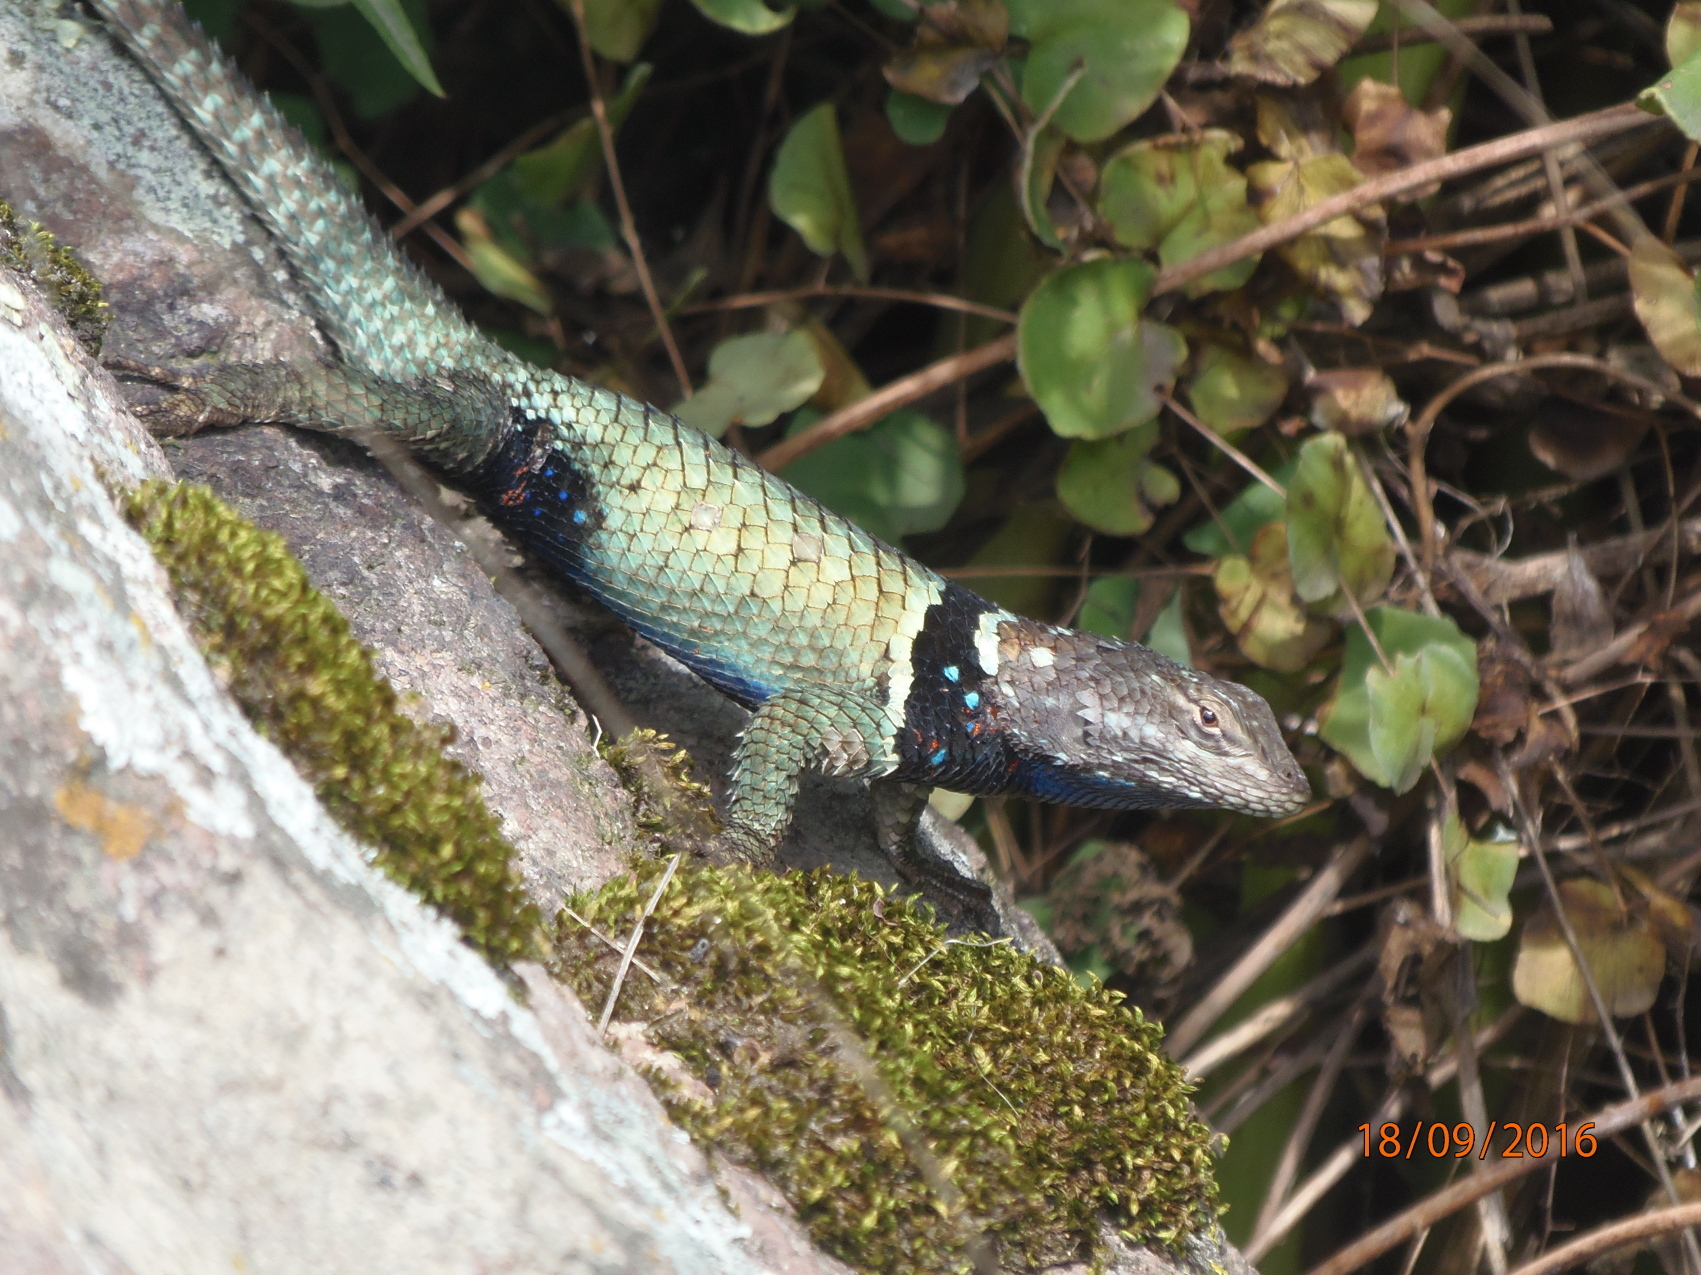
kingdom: Animalia
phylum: Chordata
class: Squamata
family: Phrynosomatidae
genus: Sceloporus
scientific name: Sceloporus torquatus
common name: Central plateau torquate lizard [melanogaster]
